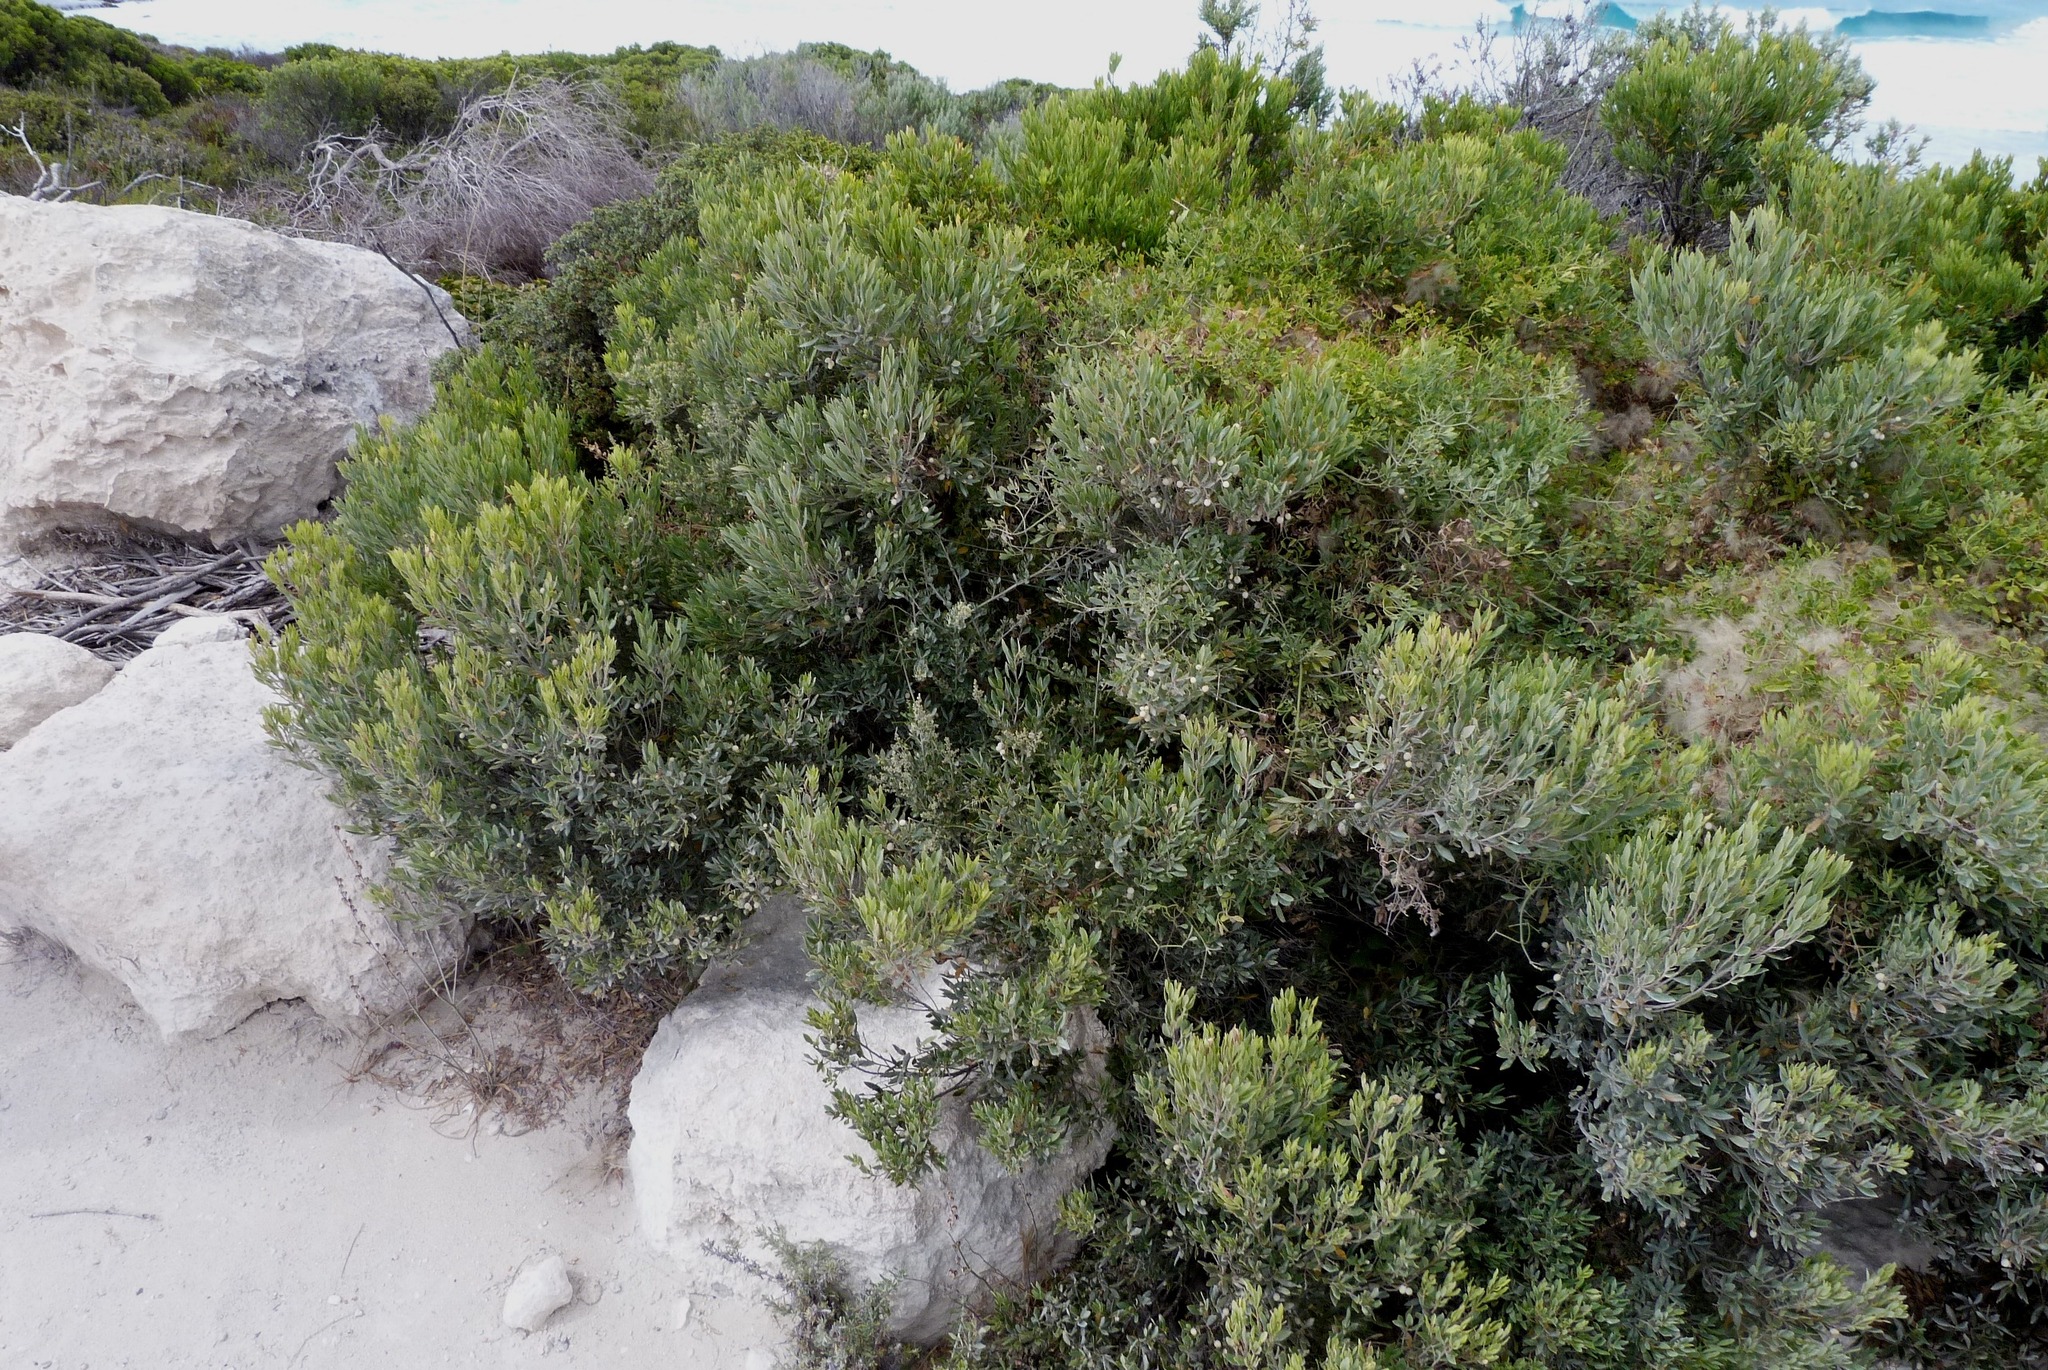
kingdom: Plantae
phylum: Tracheophyta
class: Magnoliopsida
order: Ericales
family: Ericaceae
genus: Leptecophylla
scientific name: Leptecophylla parvifolia
